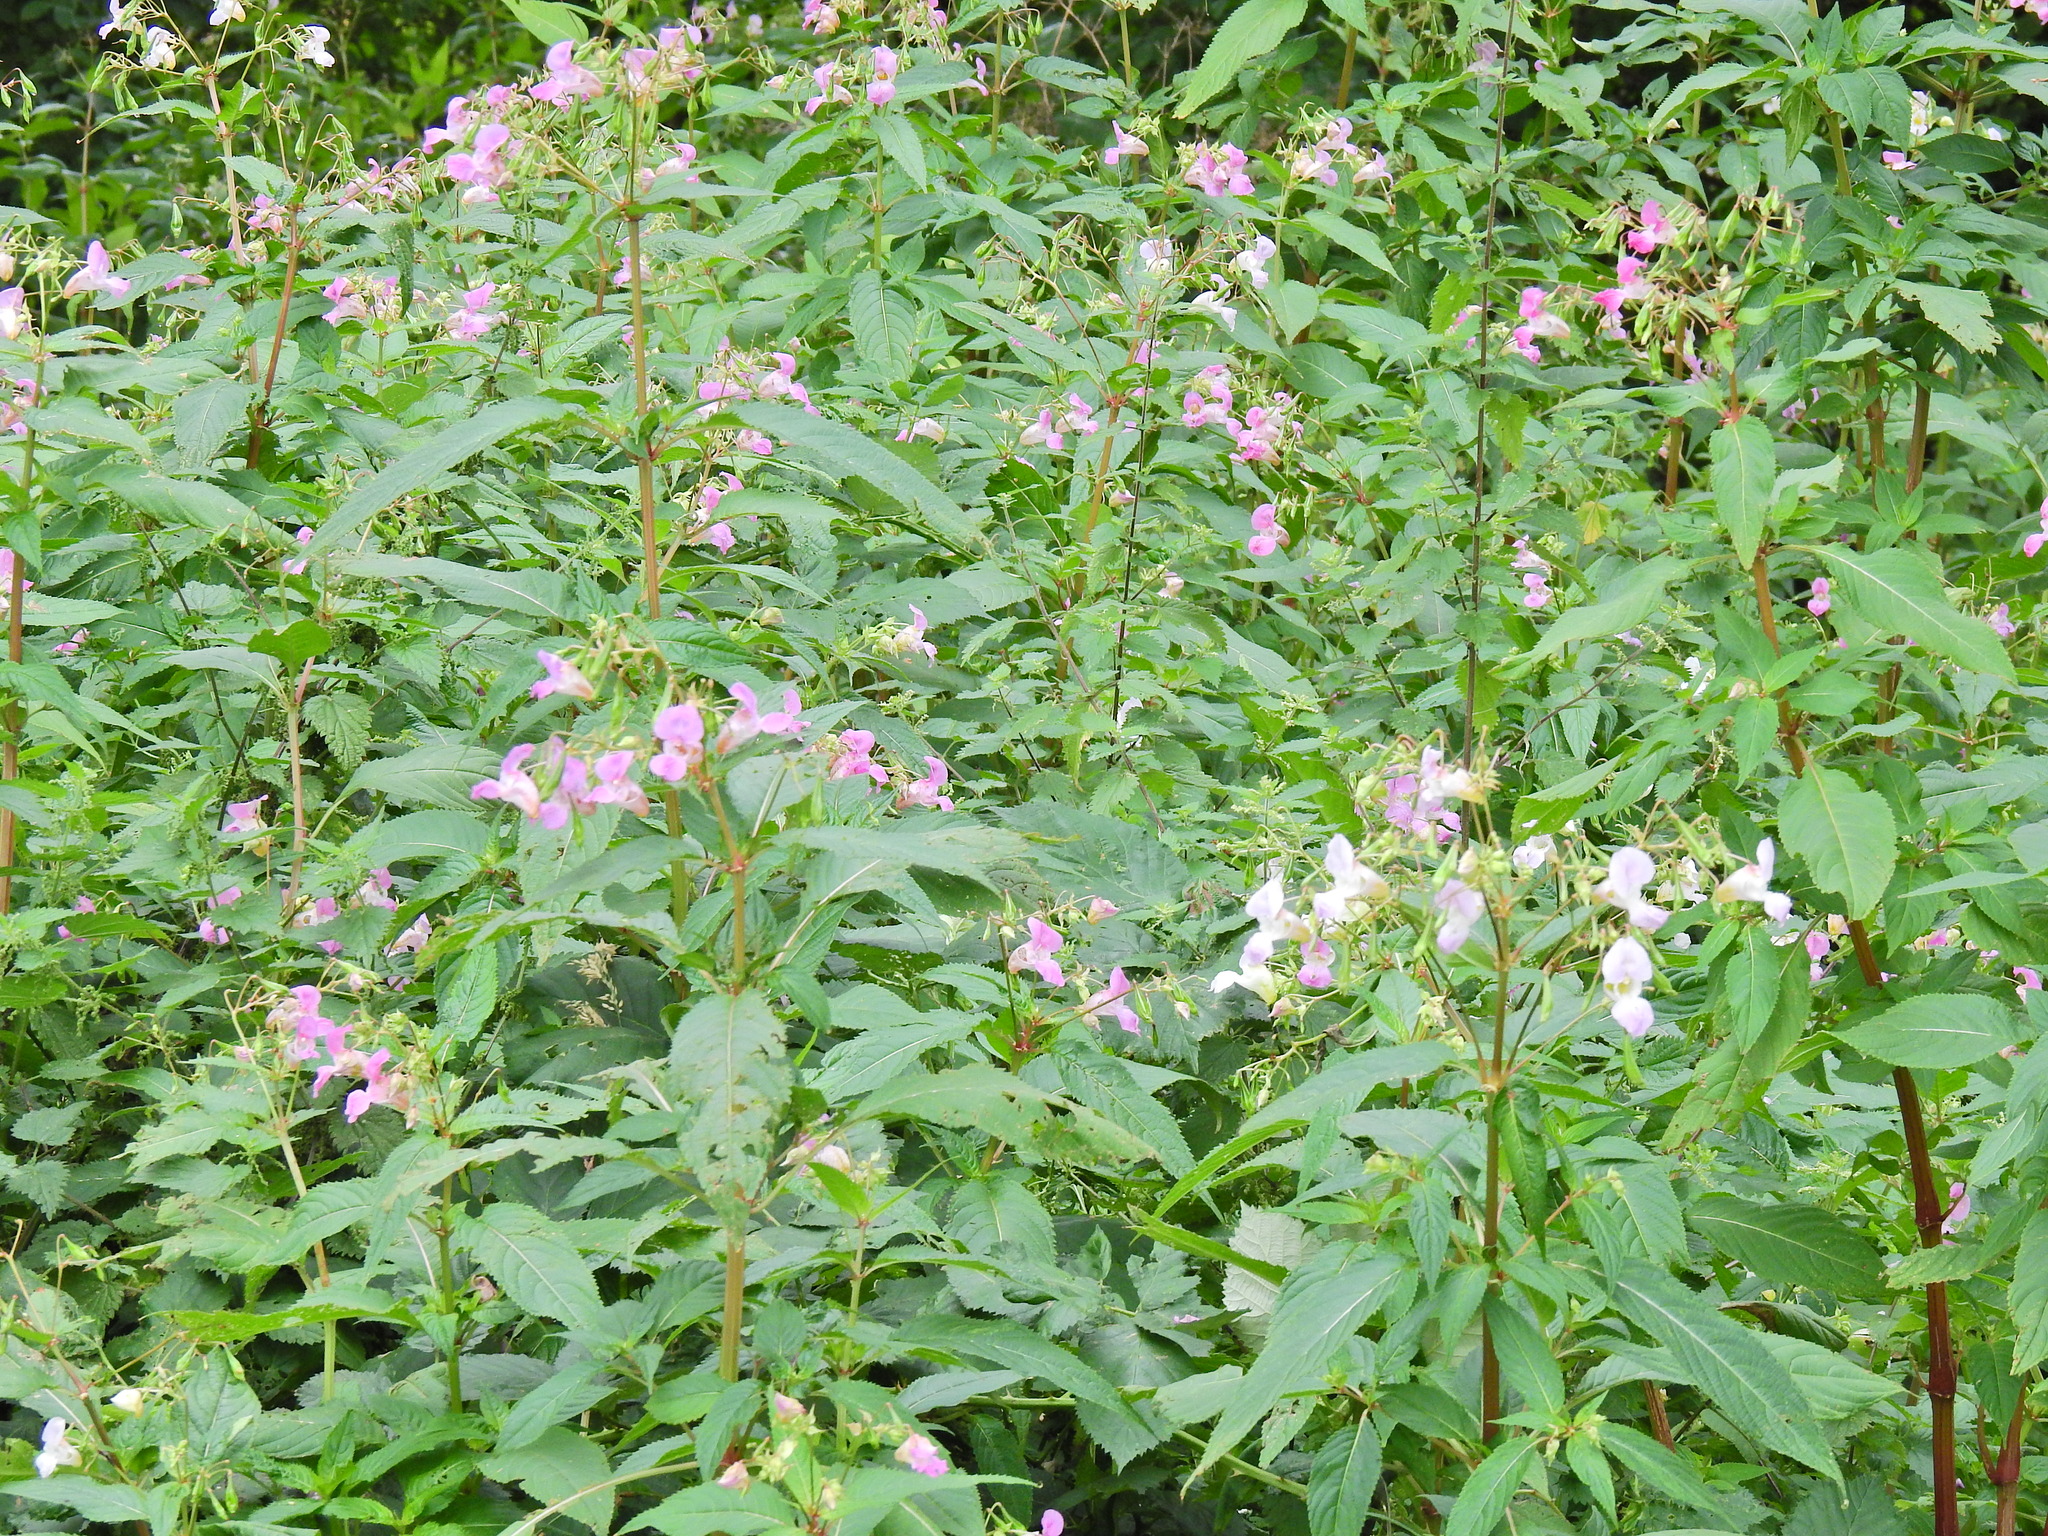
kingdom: Plantae
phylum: Tracheophyta
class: Magnoliopsida
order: Ericales
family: Balsaminaceae
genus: Impatiens
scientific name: Impatiens glandulifera
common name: Himalayan balsam
